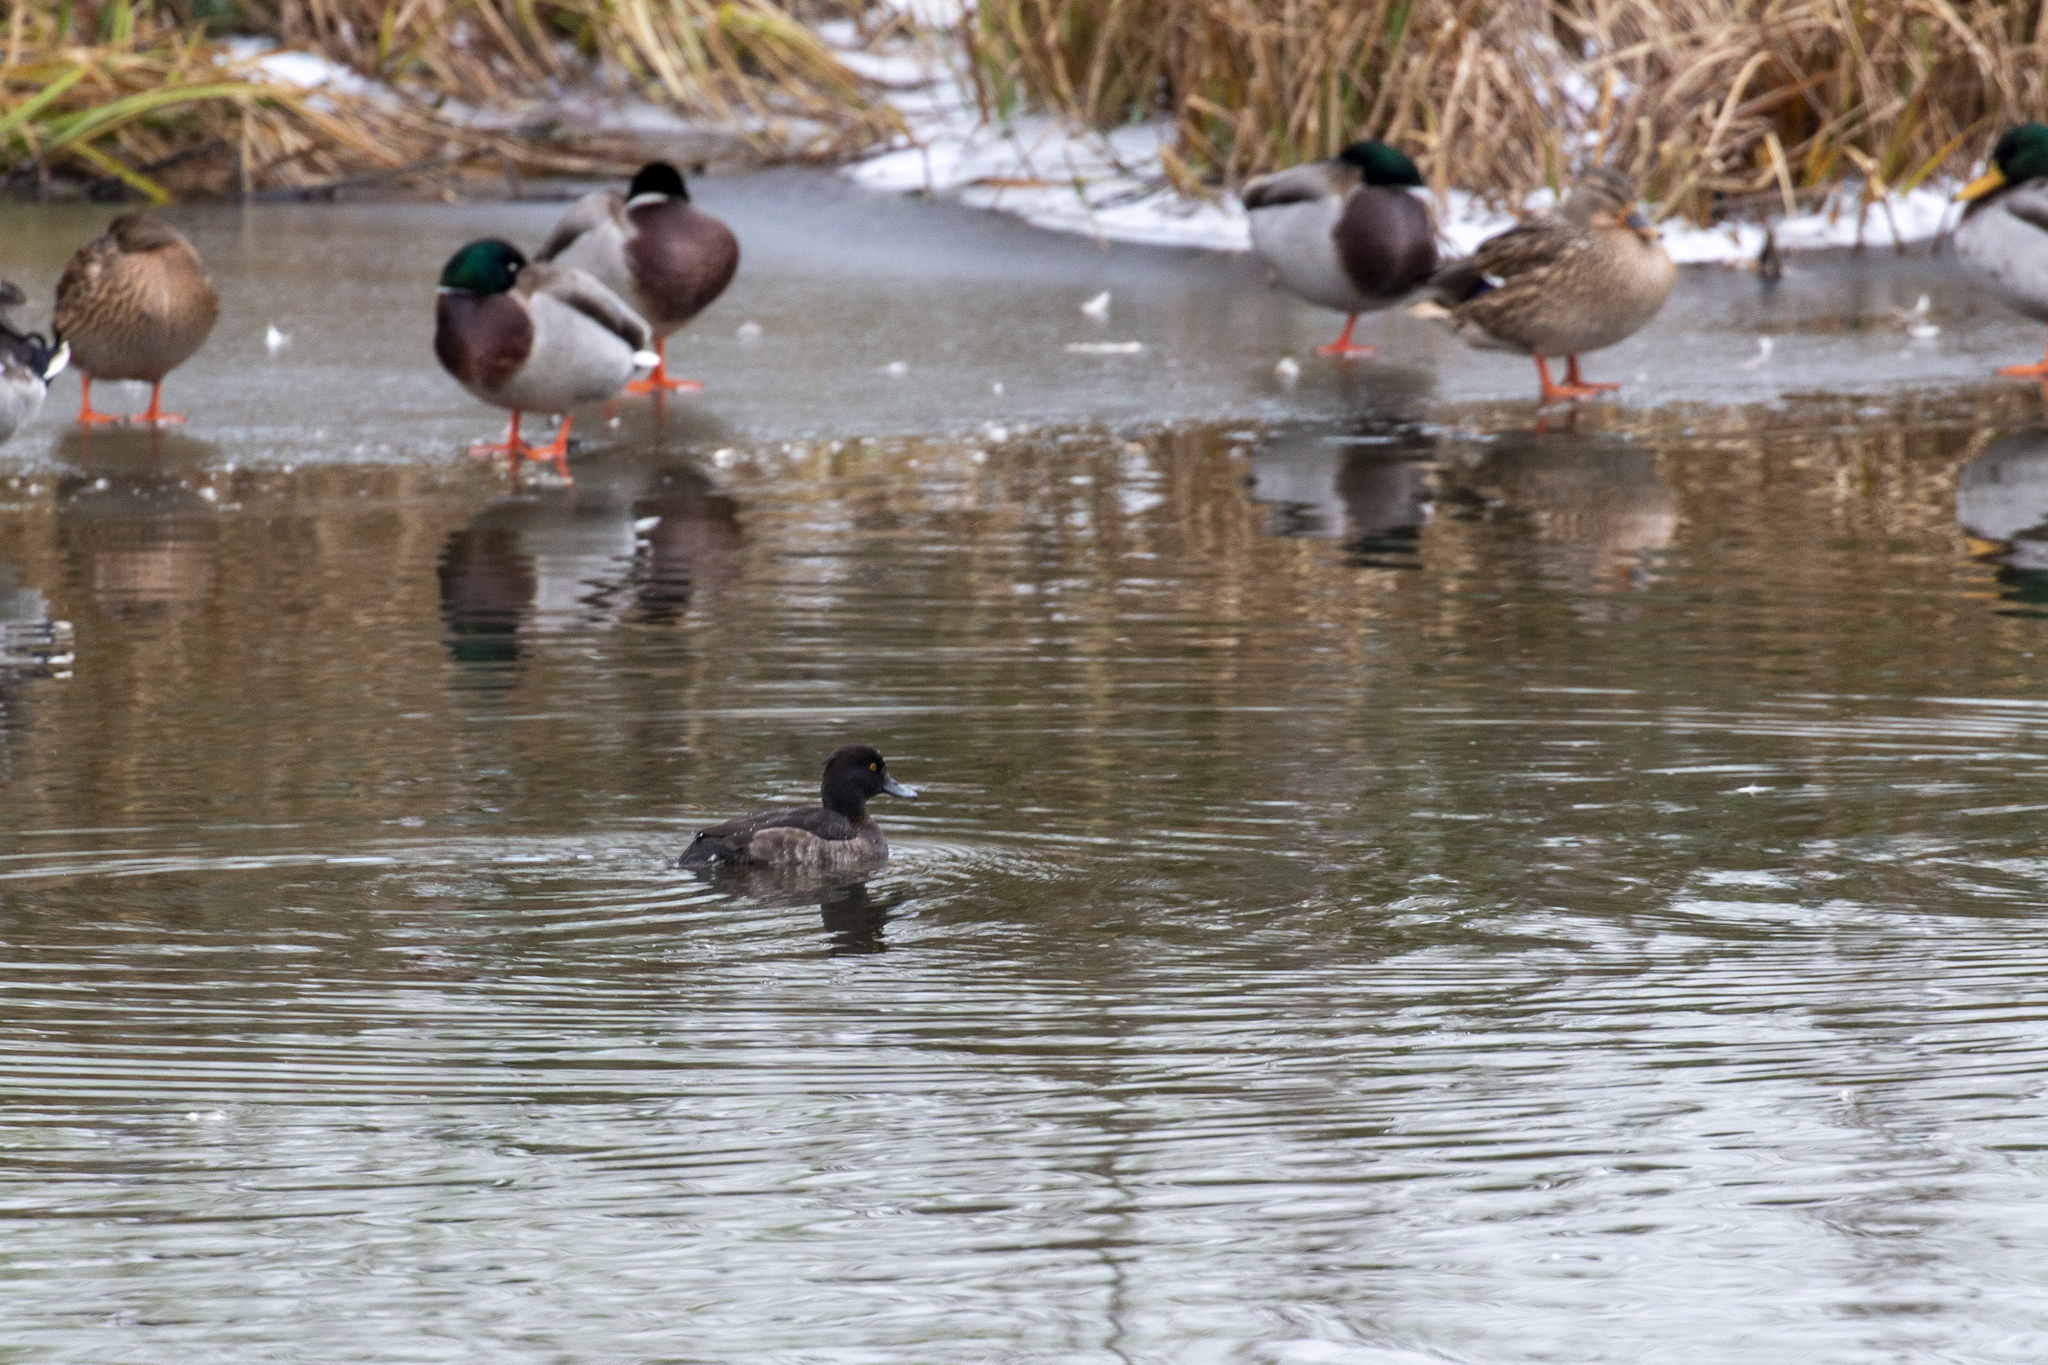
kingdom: Animalia
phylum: Chordata
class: Aves
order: Anseriformes
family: Anatidae
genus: Aythya
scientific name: Aythya fuligula
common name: Tufted duck
